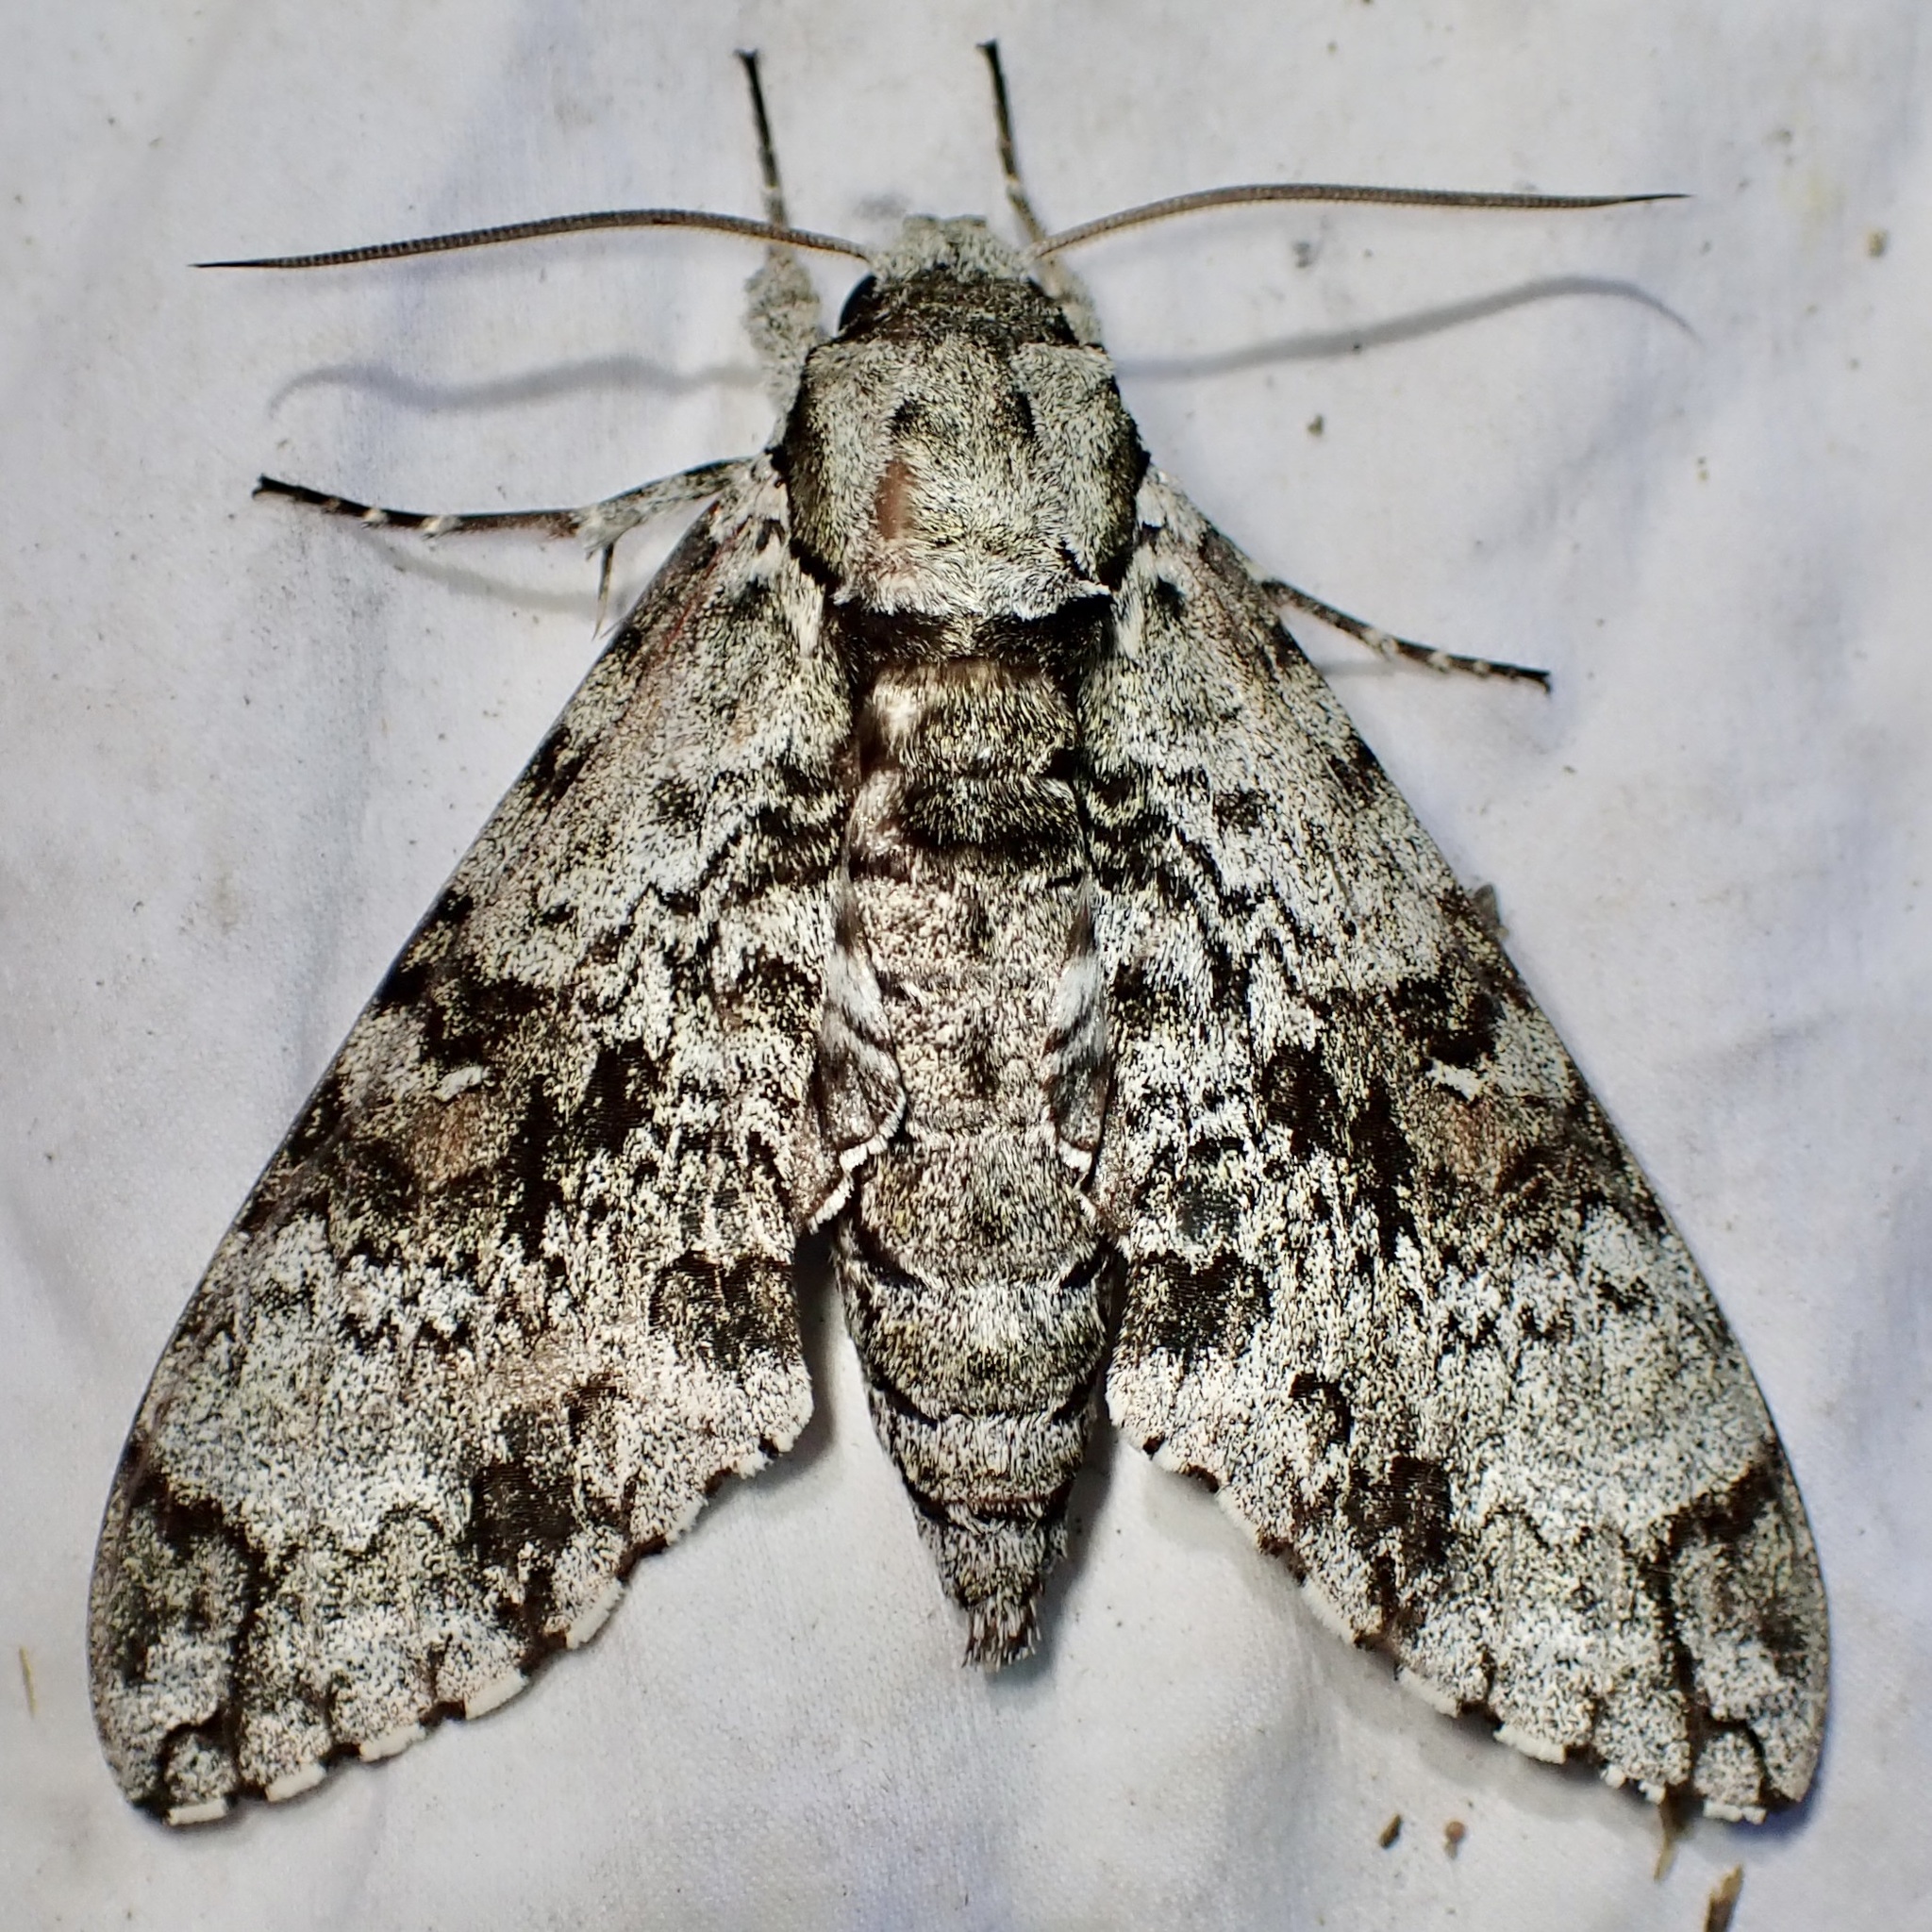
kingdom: Animalia
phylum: Arthropoda
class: Insecta
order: Lepidoptera
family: Sphingidae
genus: Manduca
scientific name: Manduca florestan
